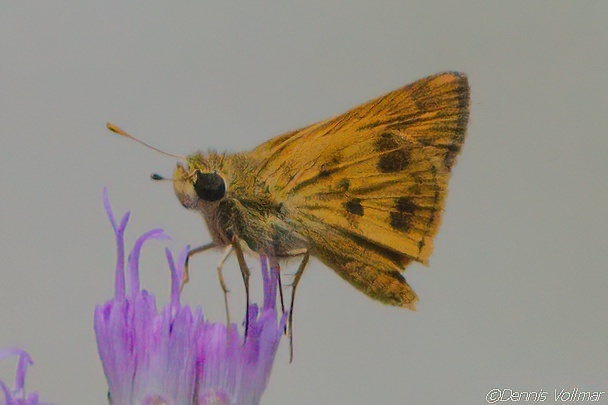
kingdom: Animalia
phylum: Arthropoda
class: Insecta
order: Lepidoptera
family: Hesperiidae
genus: Polites
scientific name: Polites vibex
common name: Whirlabout
